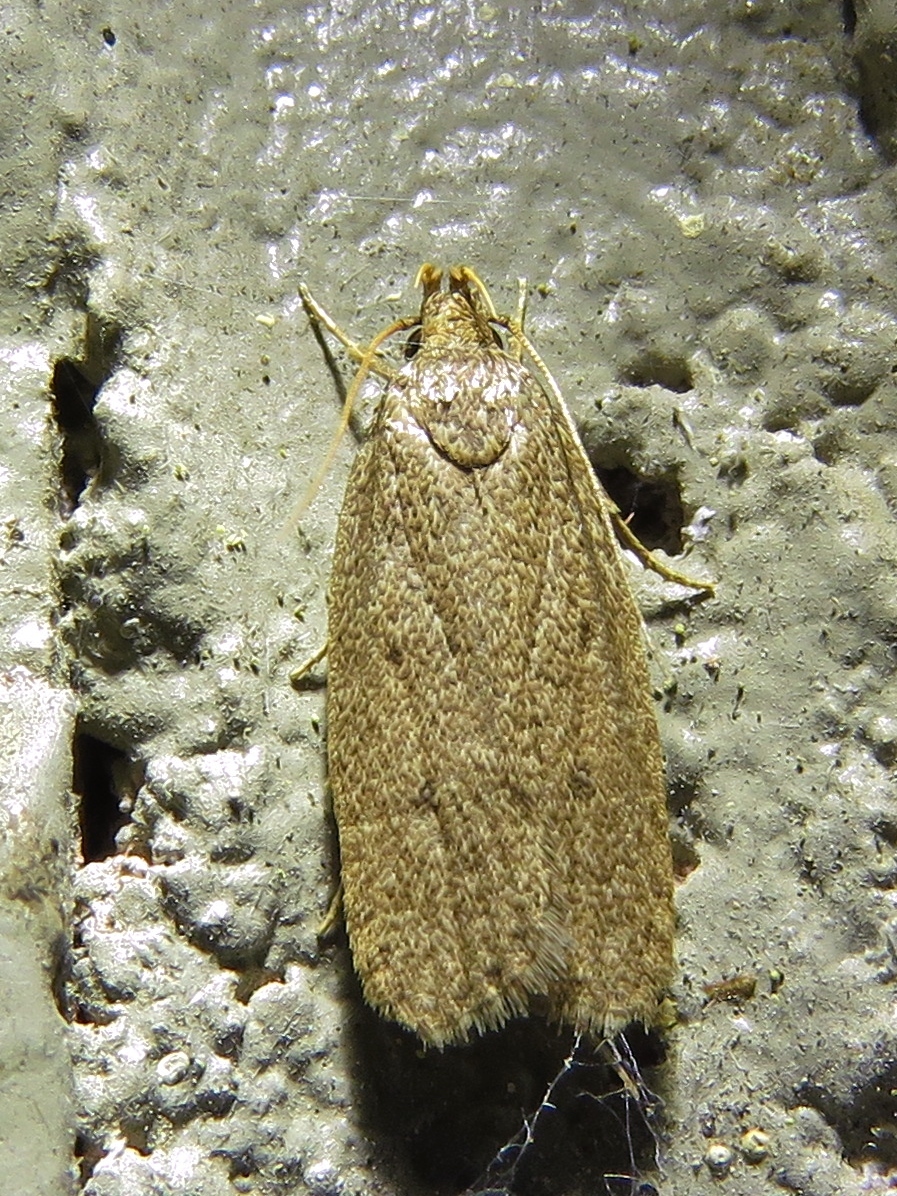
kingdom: Animalia
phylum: Arthropoda
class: Insecta
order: Lepidoptera
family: Autostichidae
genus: Autosticha
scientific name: Autosticha kyotensis
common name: Kyoto moth
